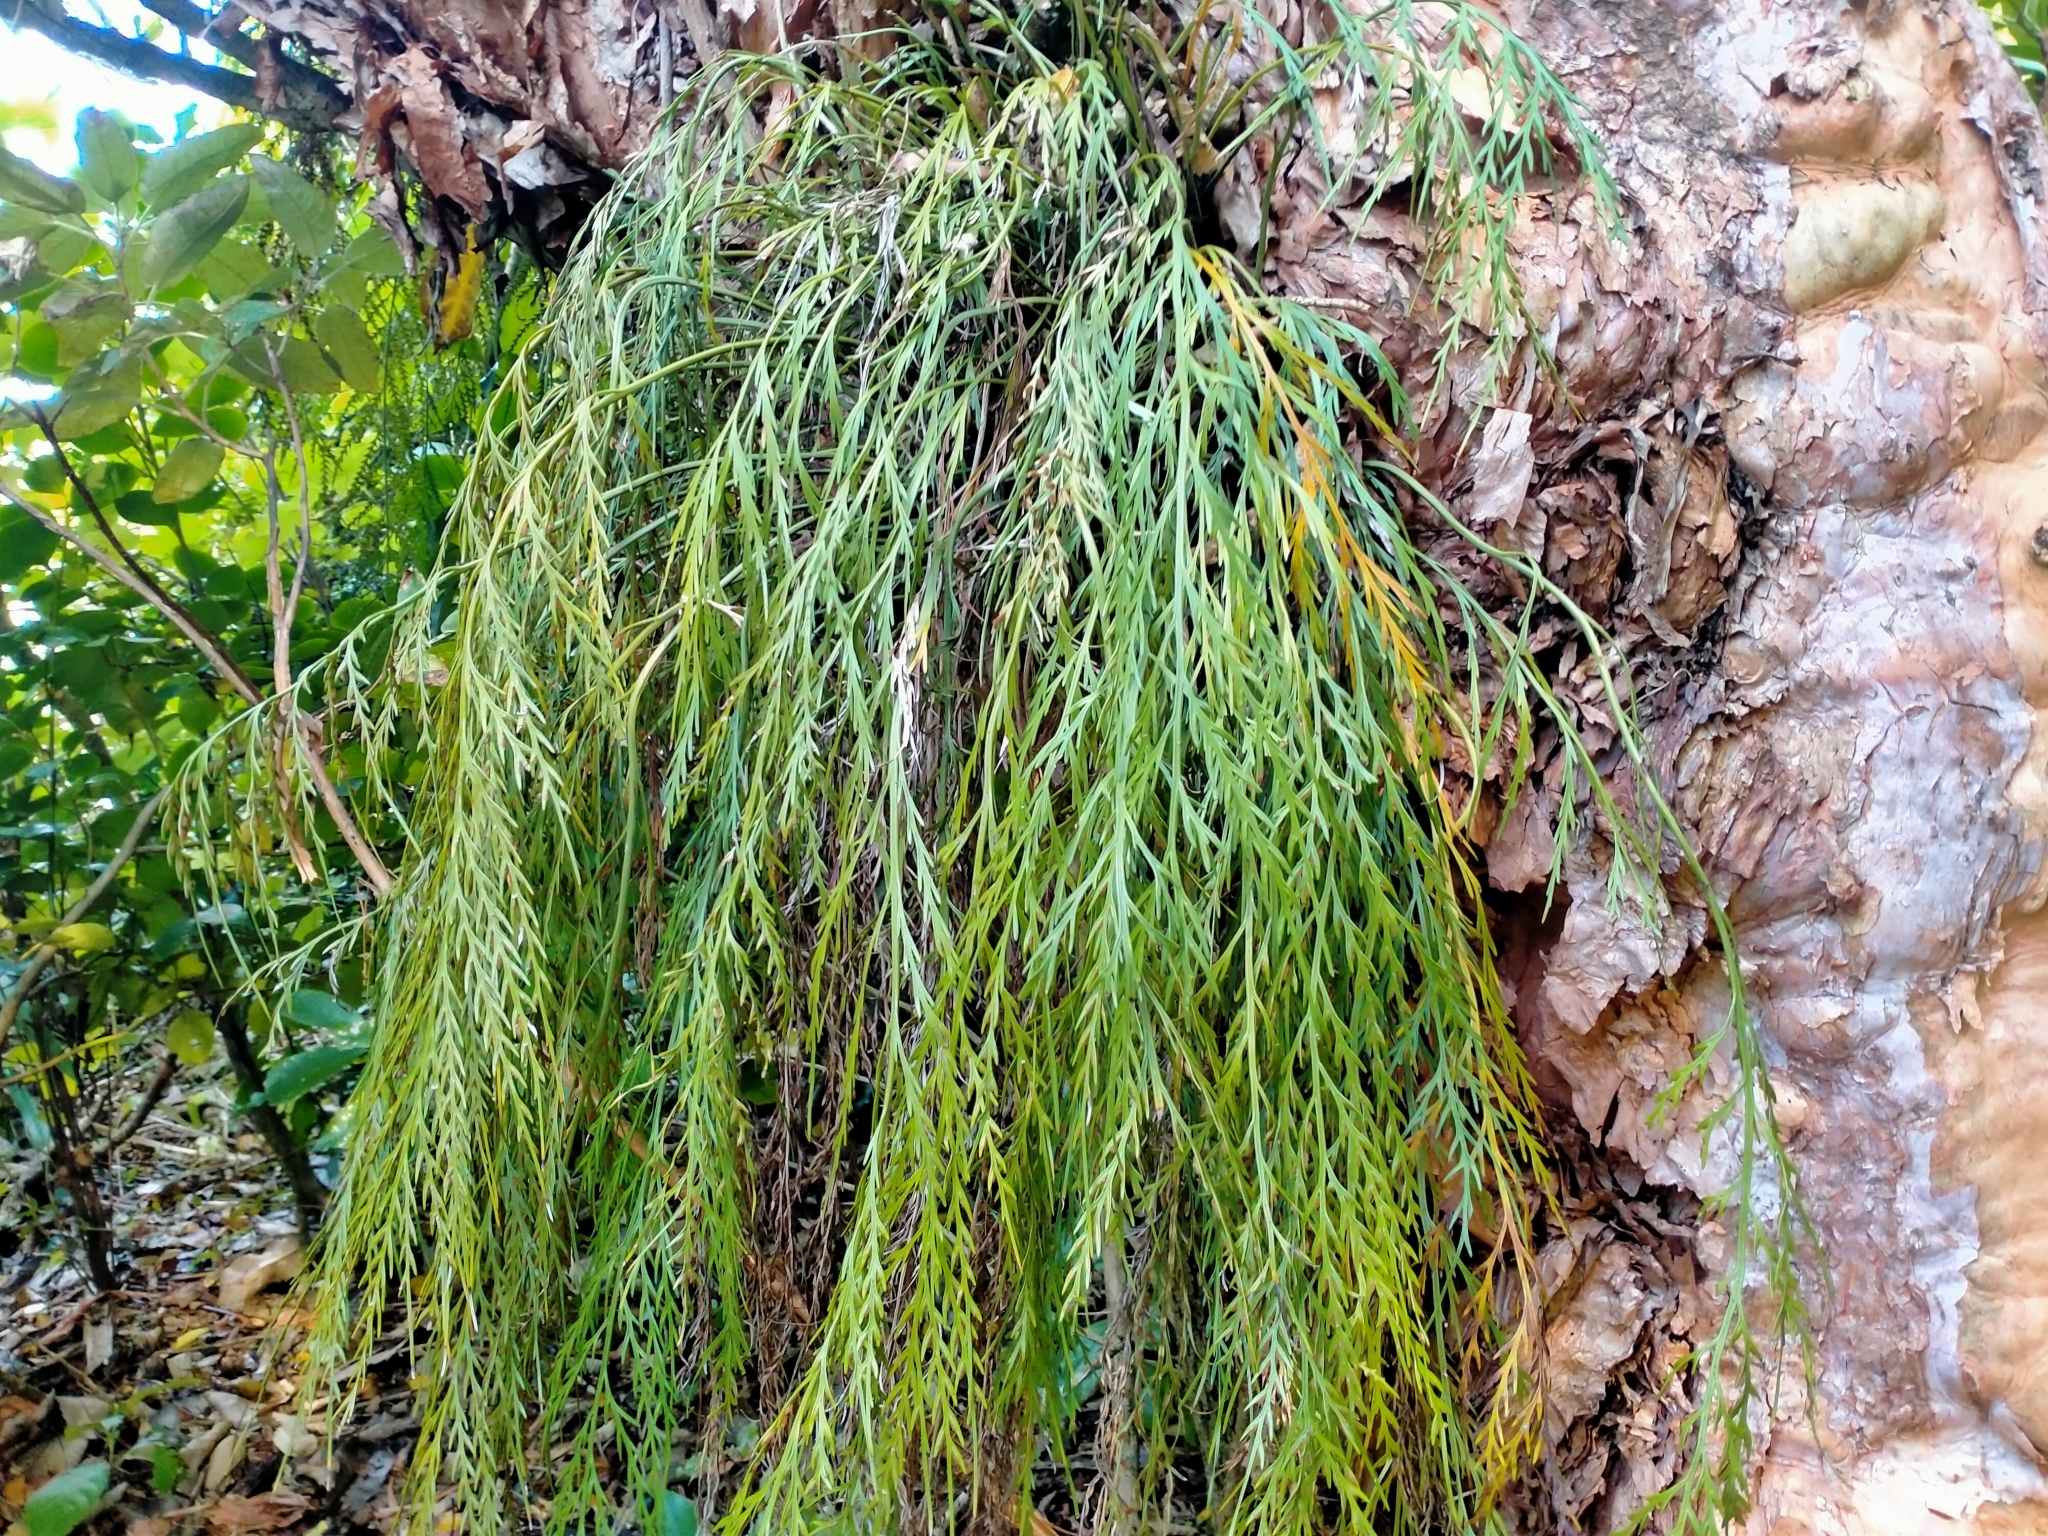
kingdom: Plantae
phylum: Tracheophyta
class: Polypodiopsida
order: Polypodiales
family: Aspleniaceae
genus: Asplenium
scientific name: Asplenium flaccidum
